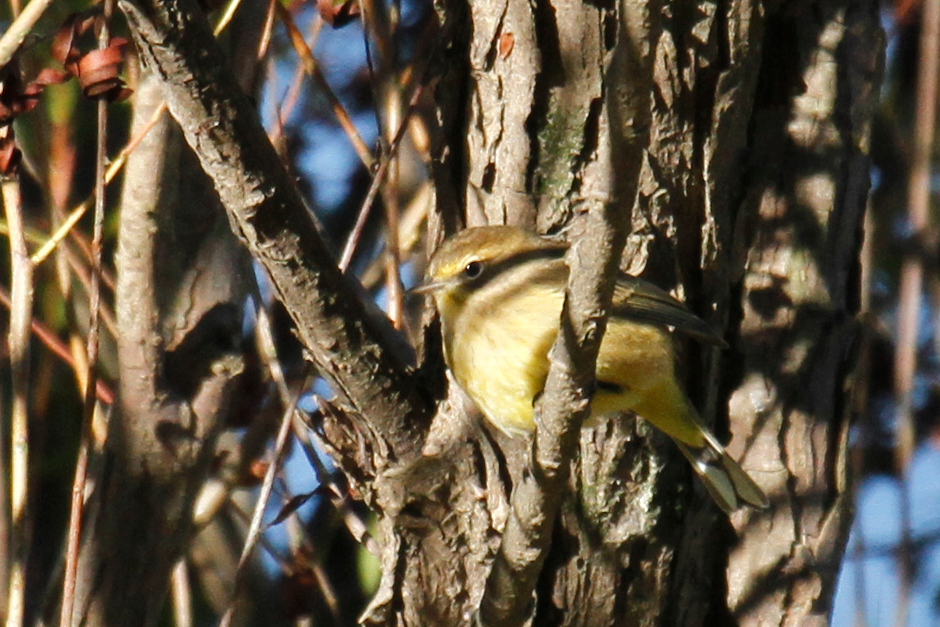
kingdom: Animalia
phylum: Chordata
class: Aves
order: Passeriformes
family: Parulidae
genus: Setophaga
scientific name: Setophaga palmarum
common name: Palm warbler
